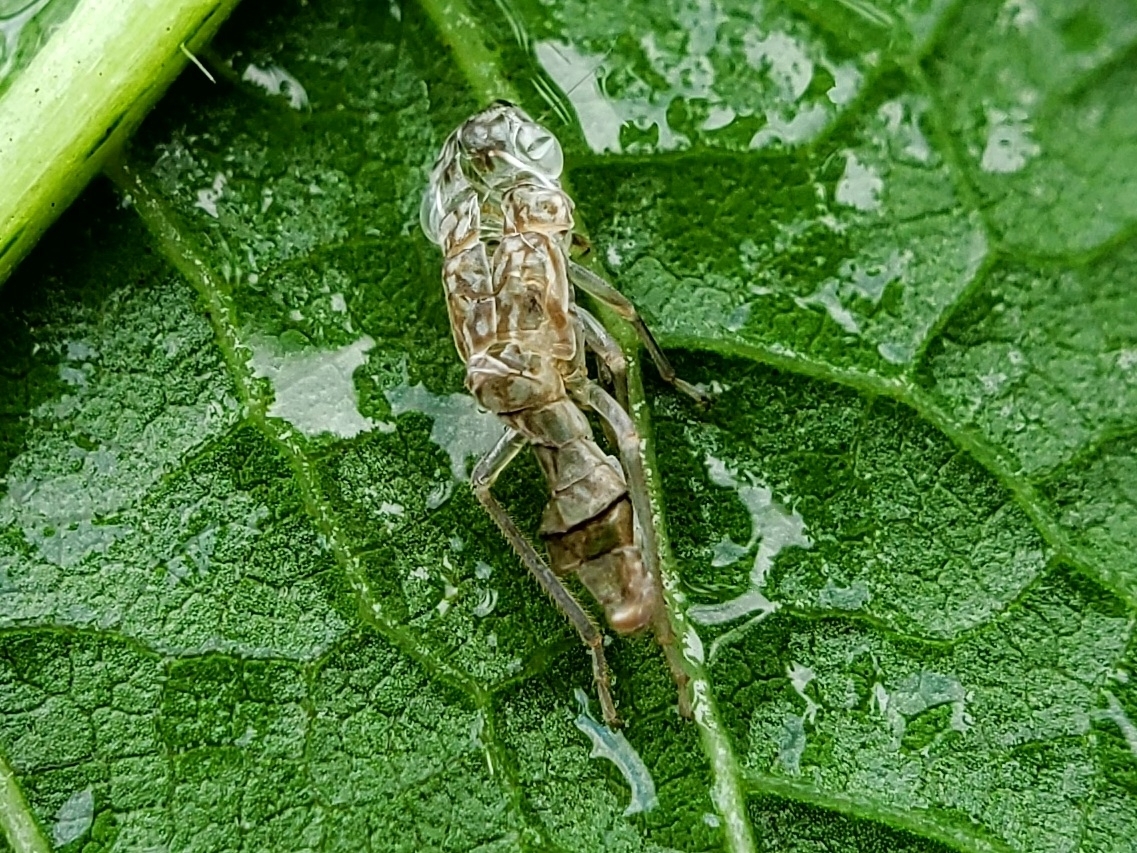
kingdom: Animalia
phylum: Arthropoda
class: Insecta
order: Hemiptera
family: Cicadellidae
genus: Oncometopia
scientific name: Oncometopia orbona
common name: Broad-headed sharpshooter
